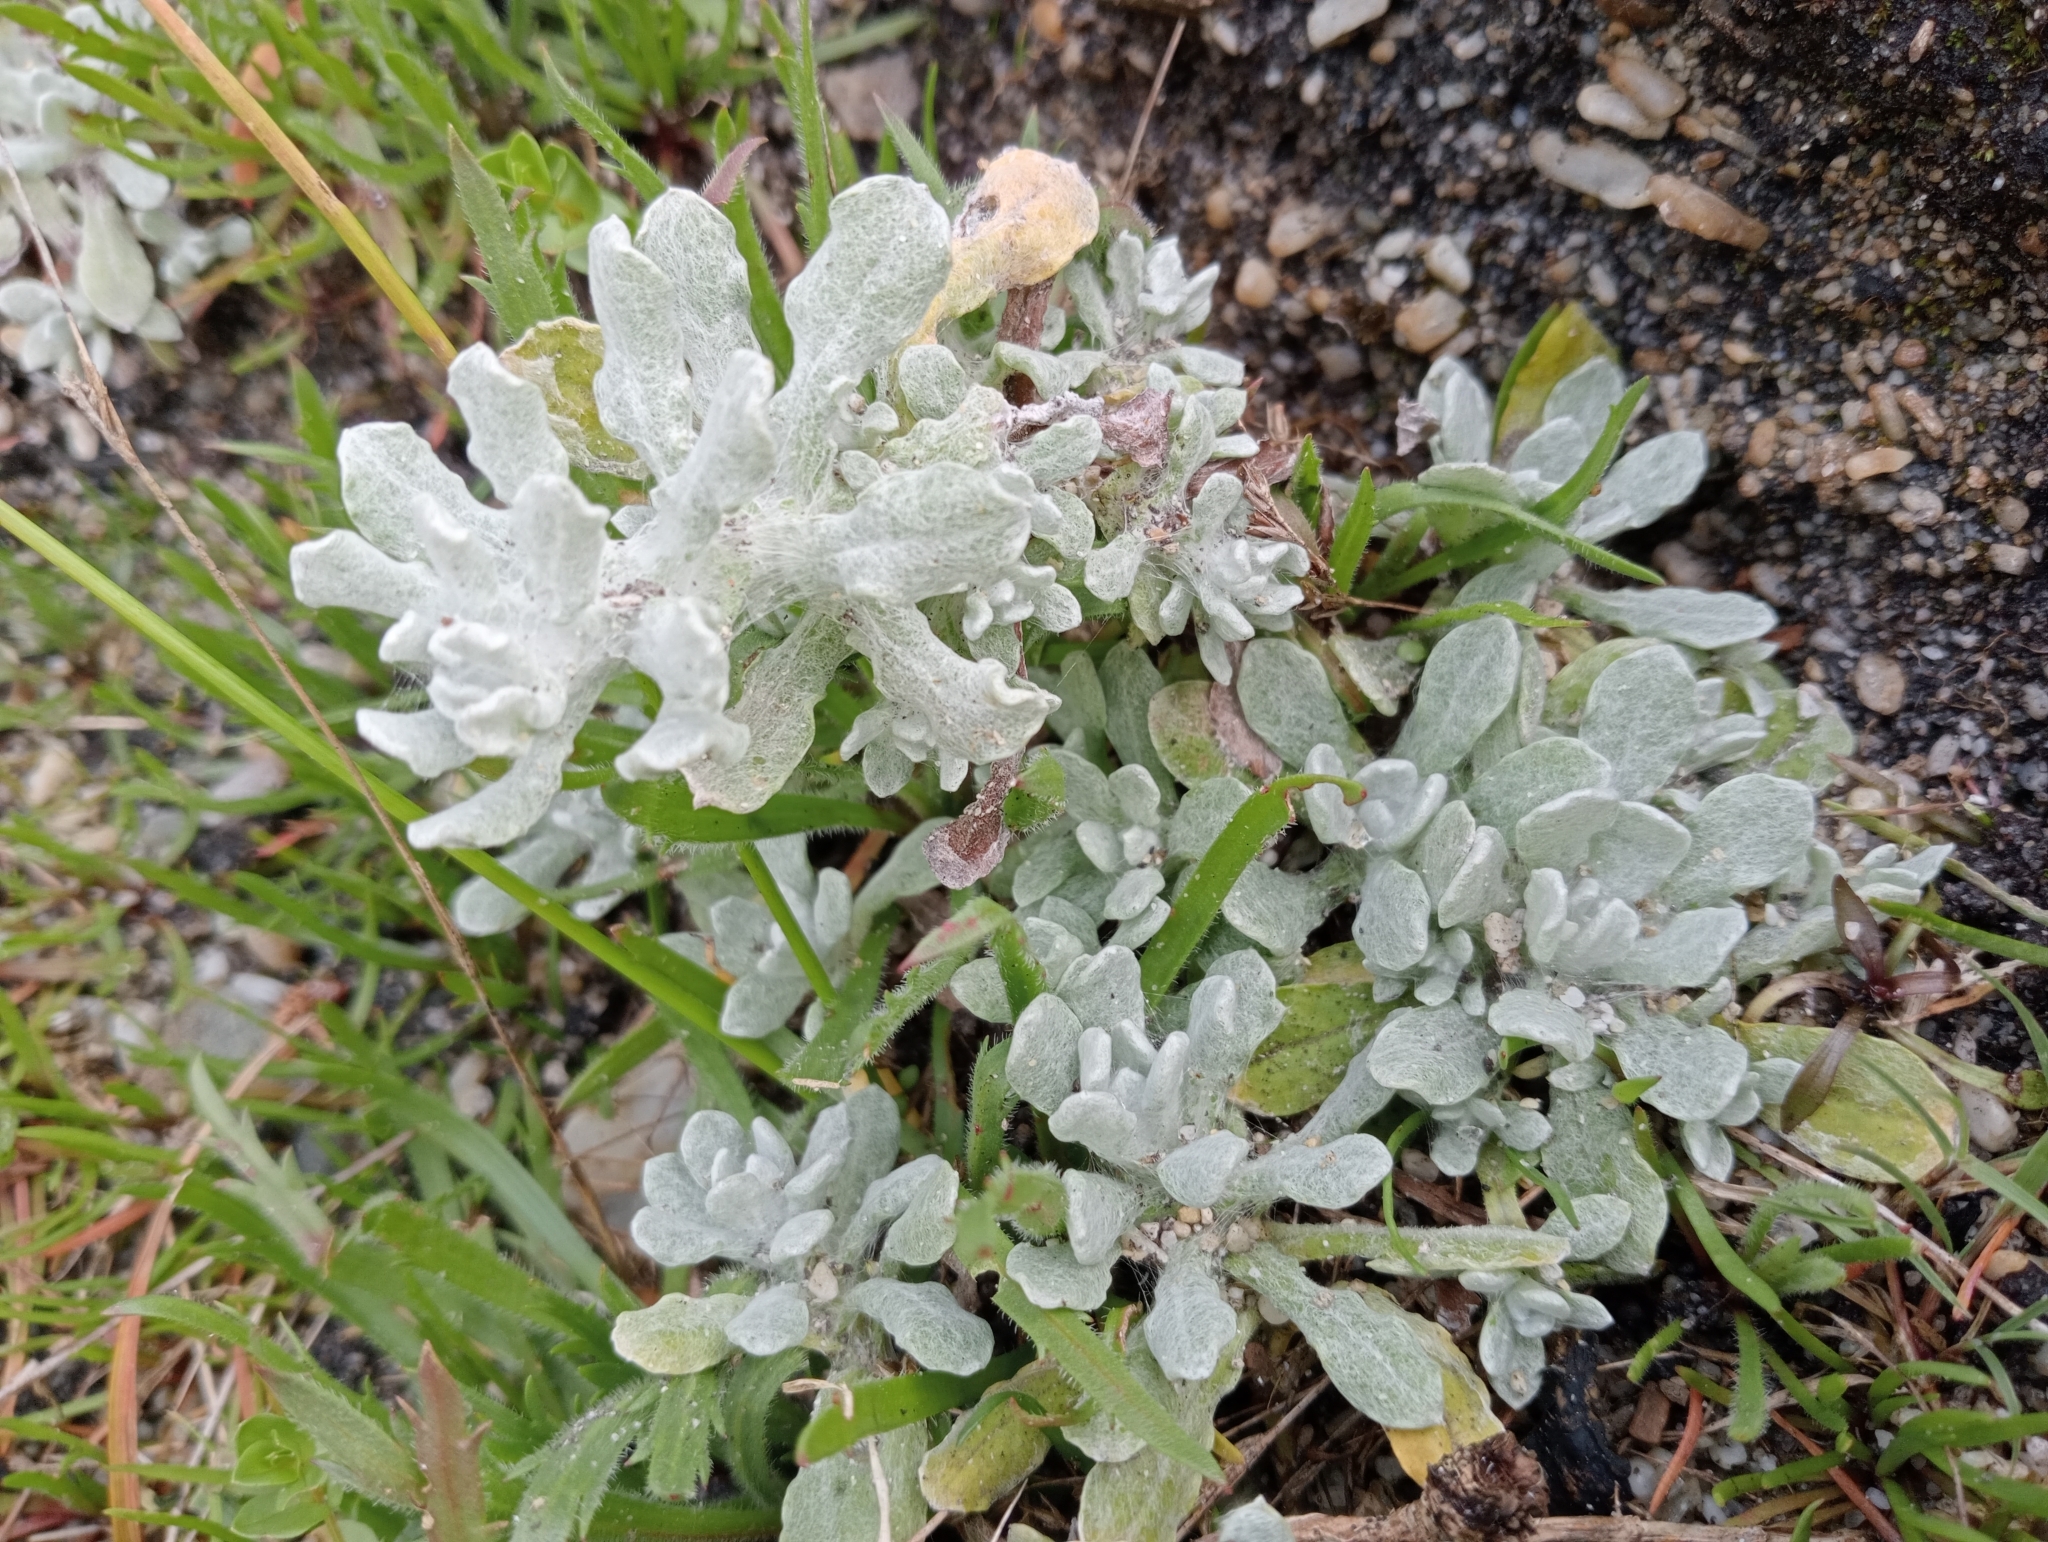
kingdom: Plantae
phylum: Tracheophyta
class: Magnoliopsida
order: Asterales
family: Asteraceae
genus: Pseudognaphalium
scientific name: Pseudognaphalium
